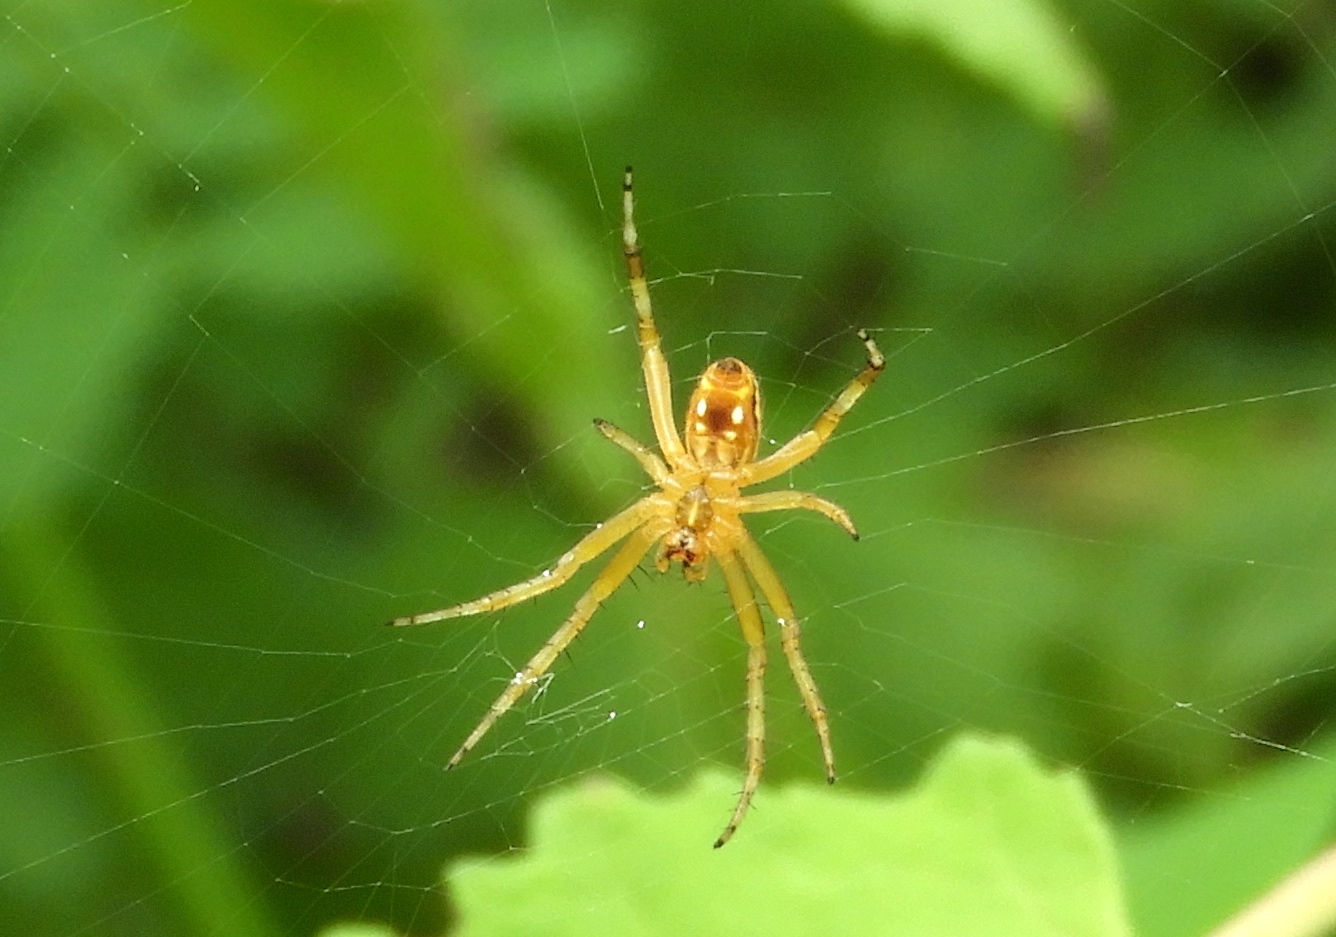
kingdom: Animalia
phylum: Arthropoda
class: Arachnida
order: Araneae
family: Araneidae
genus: Neoscona
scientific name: Neoscona
